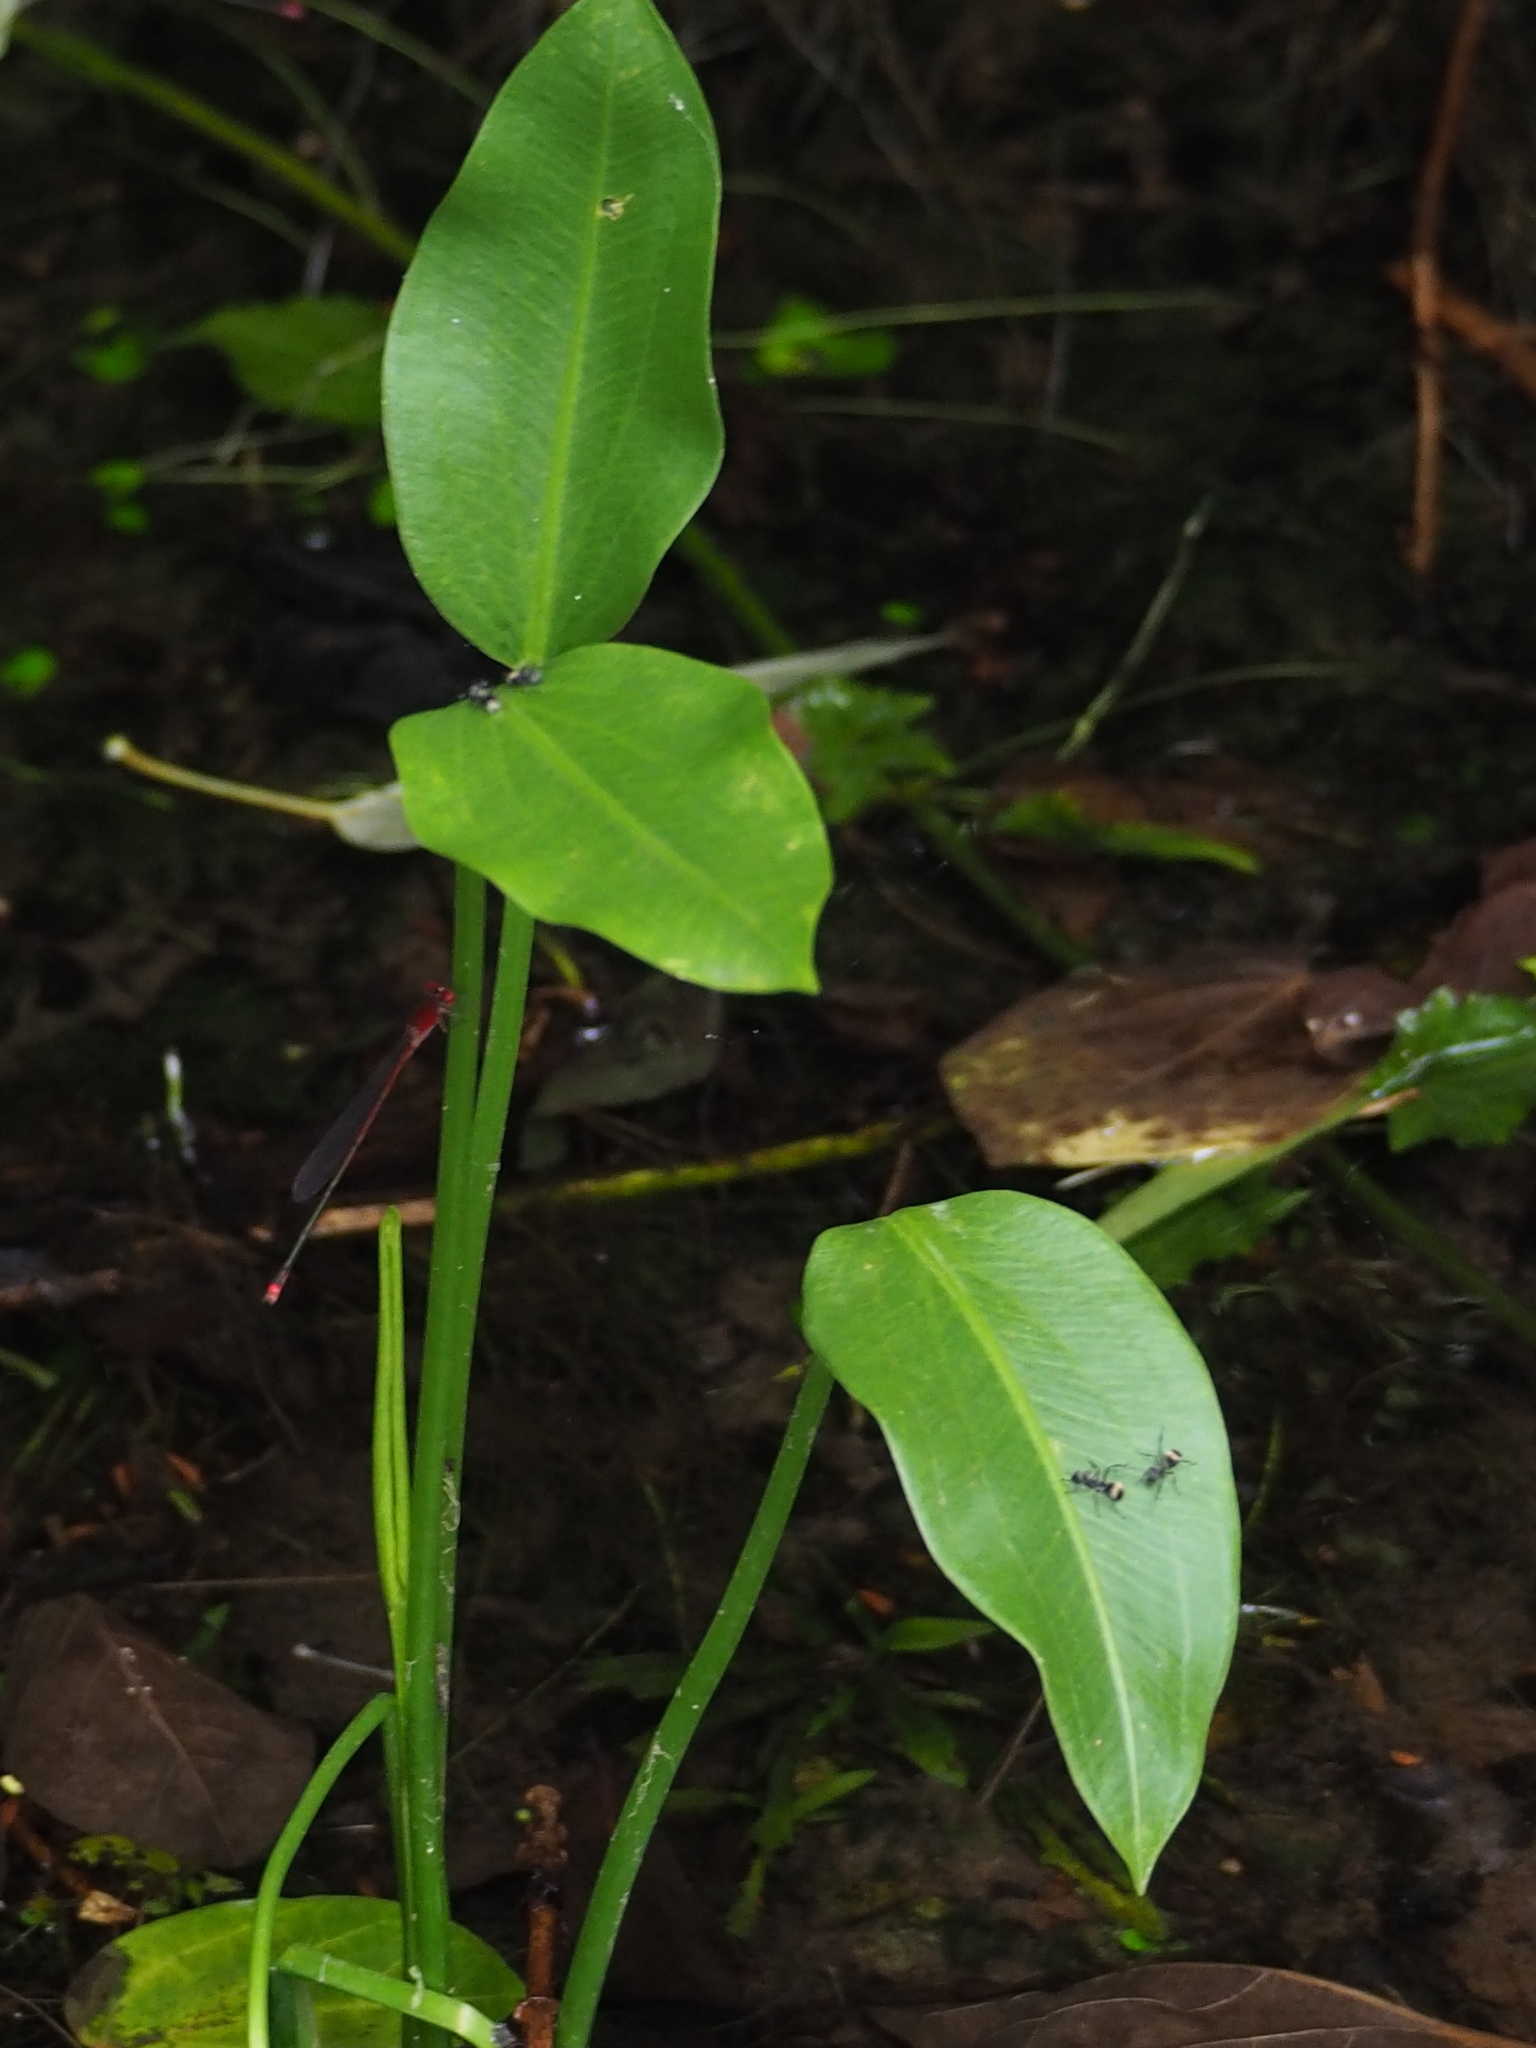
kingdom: Animalia
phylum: Arthropoda
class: Insecta
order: Odonata
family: Coenagrionidae
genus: Pseudagrion
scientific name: Pseudagrion pilidorsum
